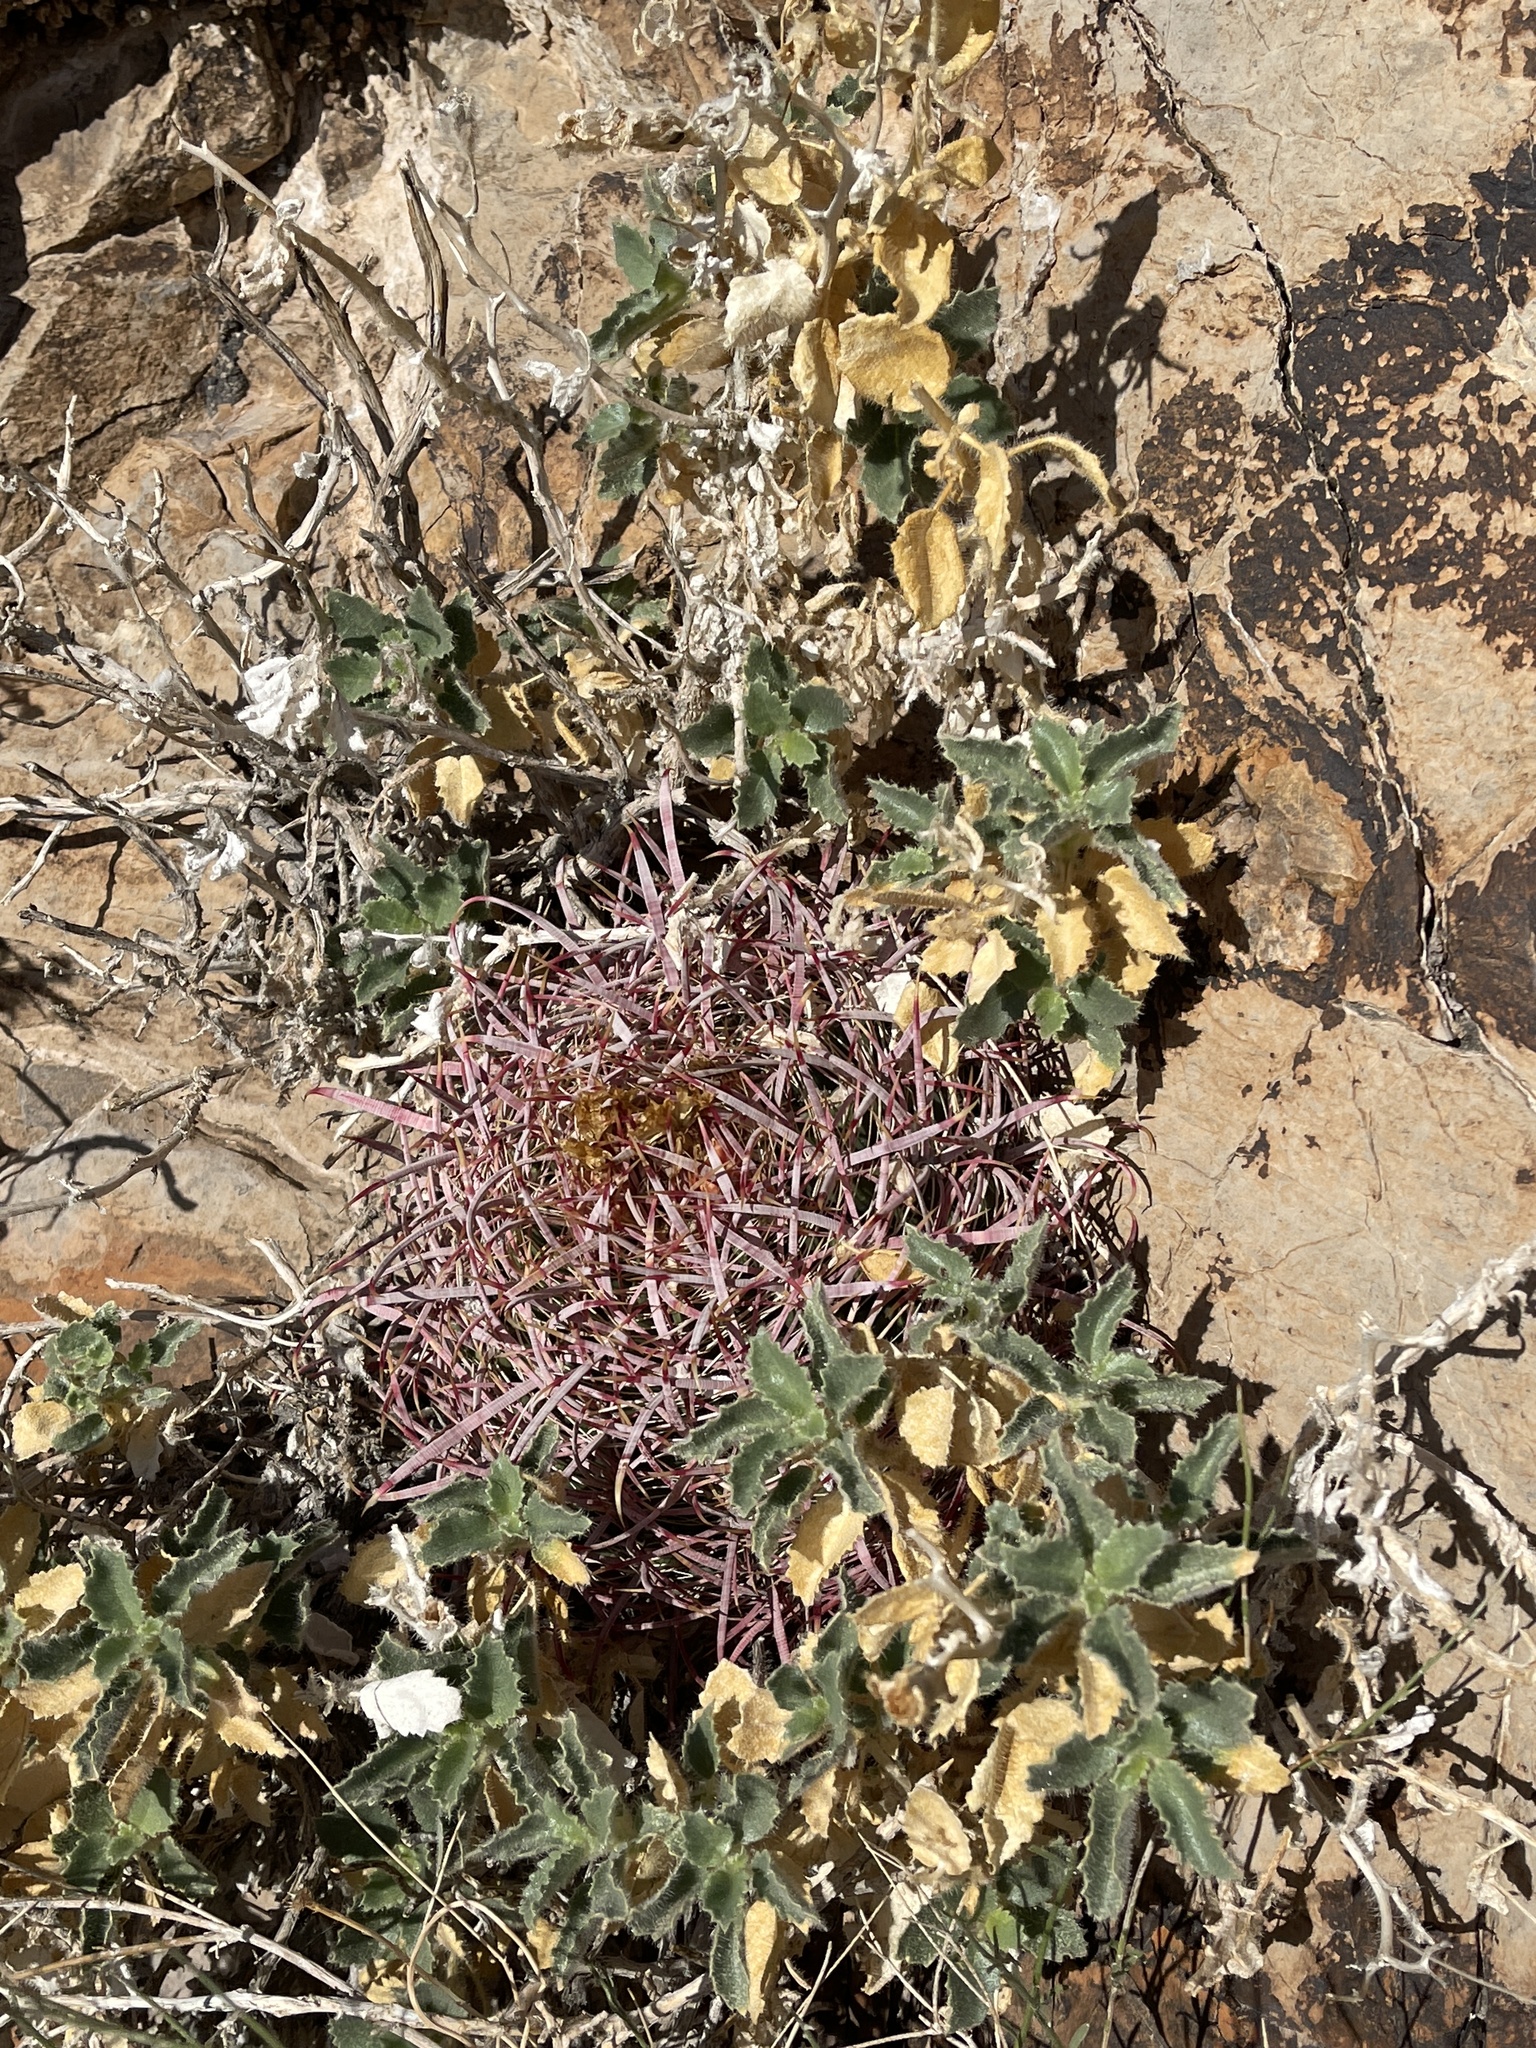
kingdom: Plantae
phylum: Tracheophyta
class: Magnoliopsida
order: Caryophyllales
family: Cactaceae
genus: Ferocactus
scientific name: Ferocactus cylindraceus
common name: California barrel cactus
